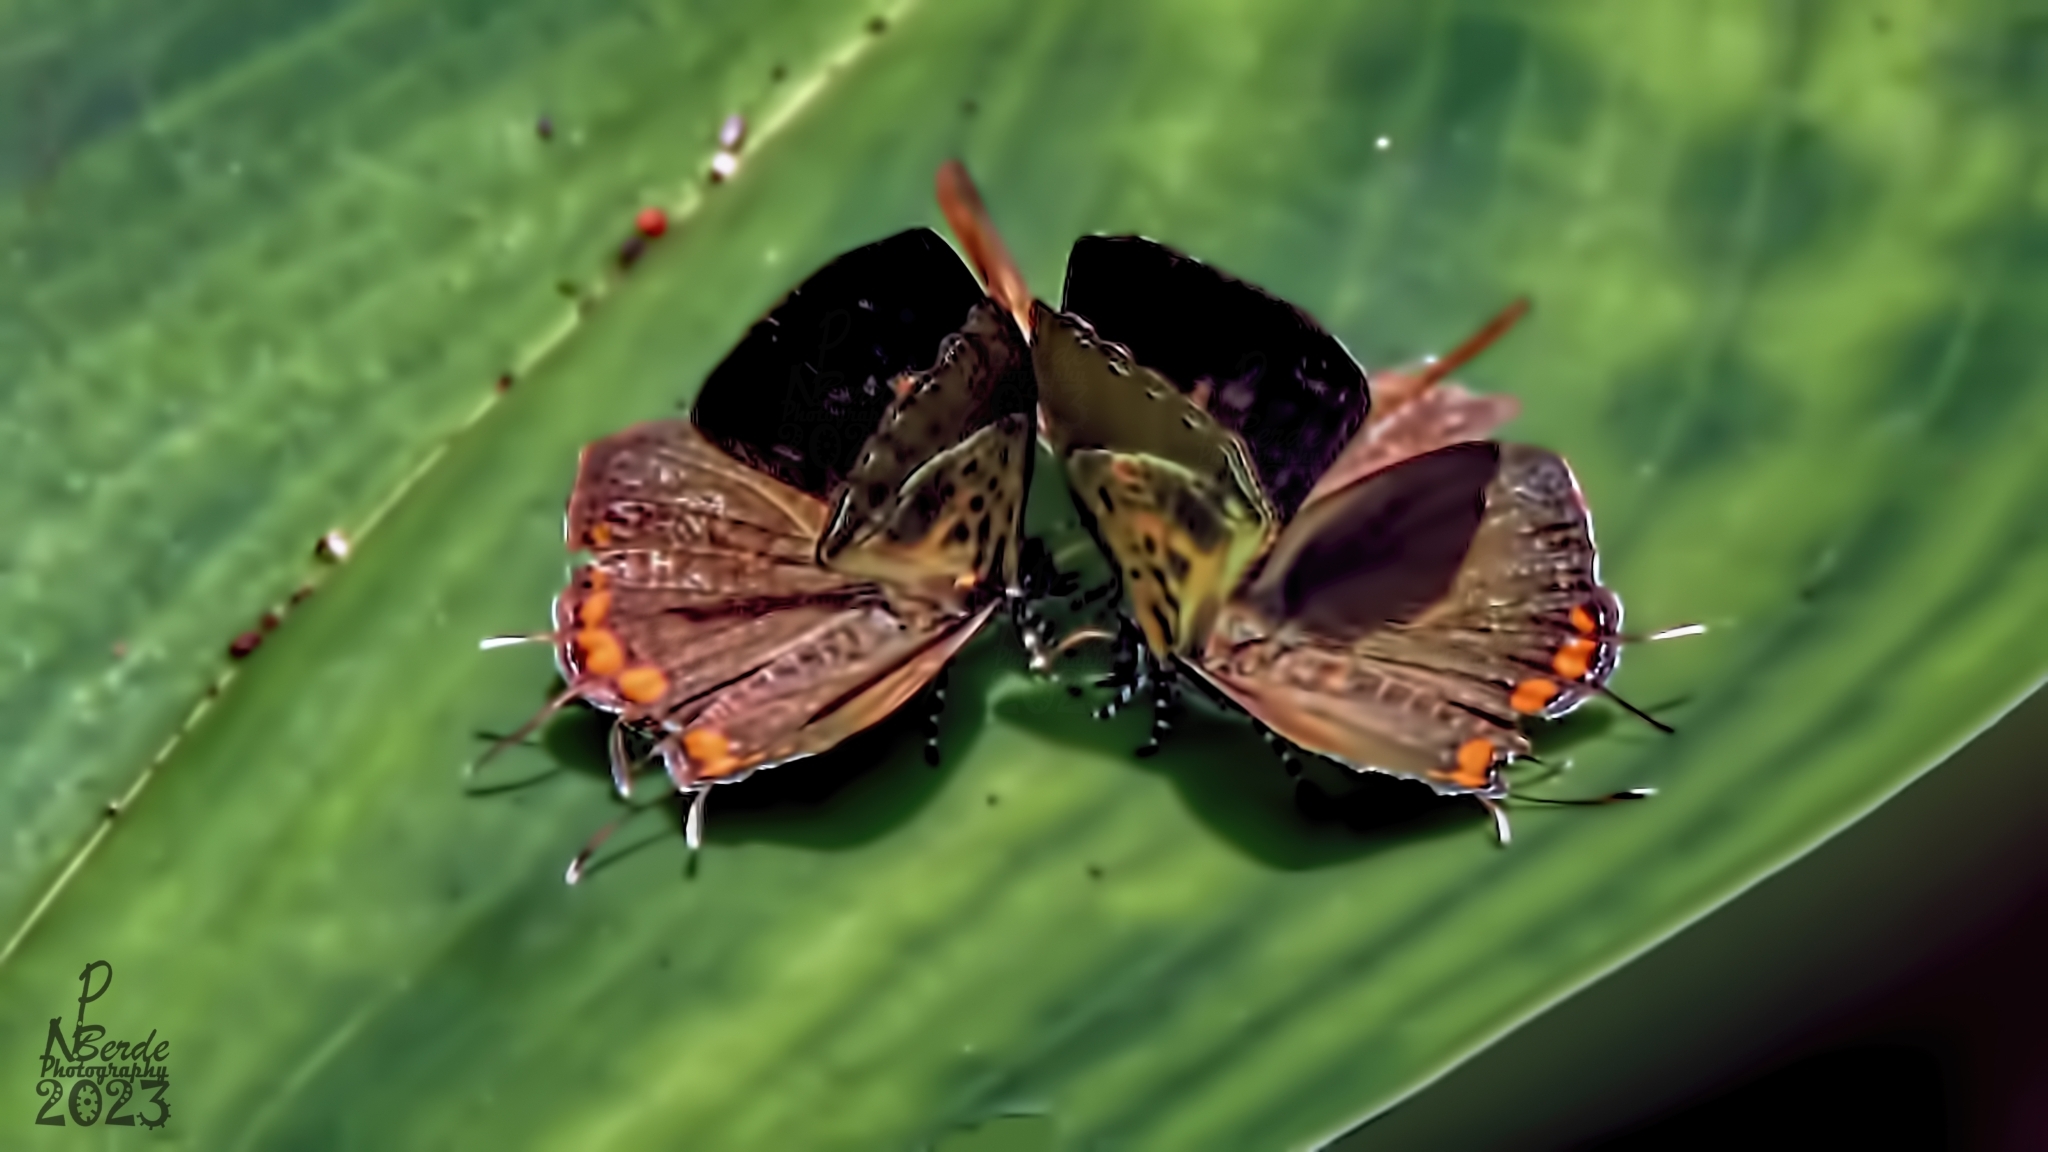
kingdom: Animalia
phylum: Arthropoda
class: Insecta
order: Lepidoptera
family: Lycaenidae
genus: Rathinda
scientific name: Rathinda amor
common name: Monkey puzzle
